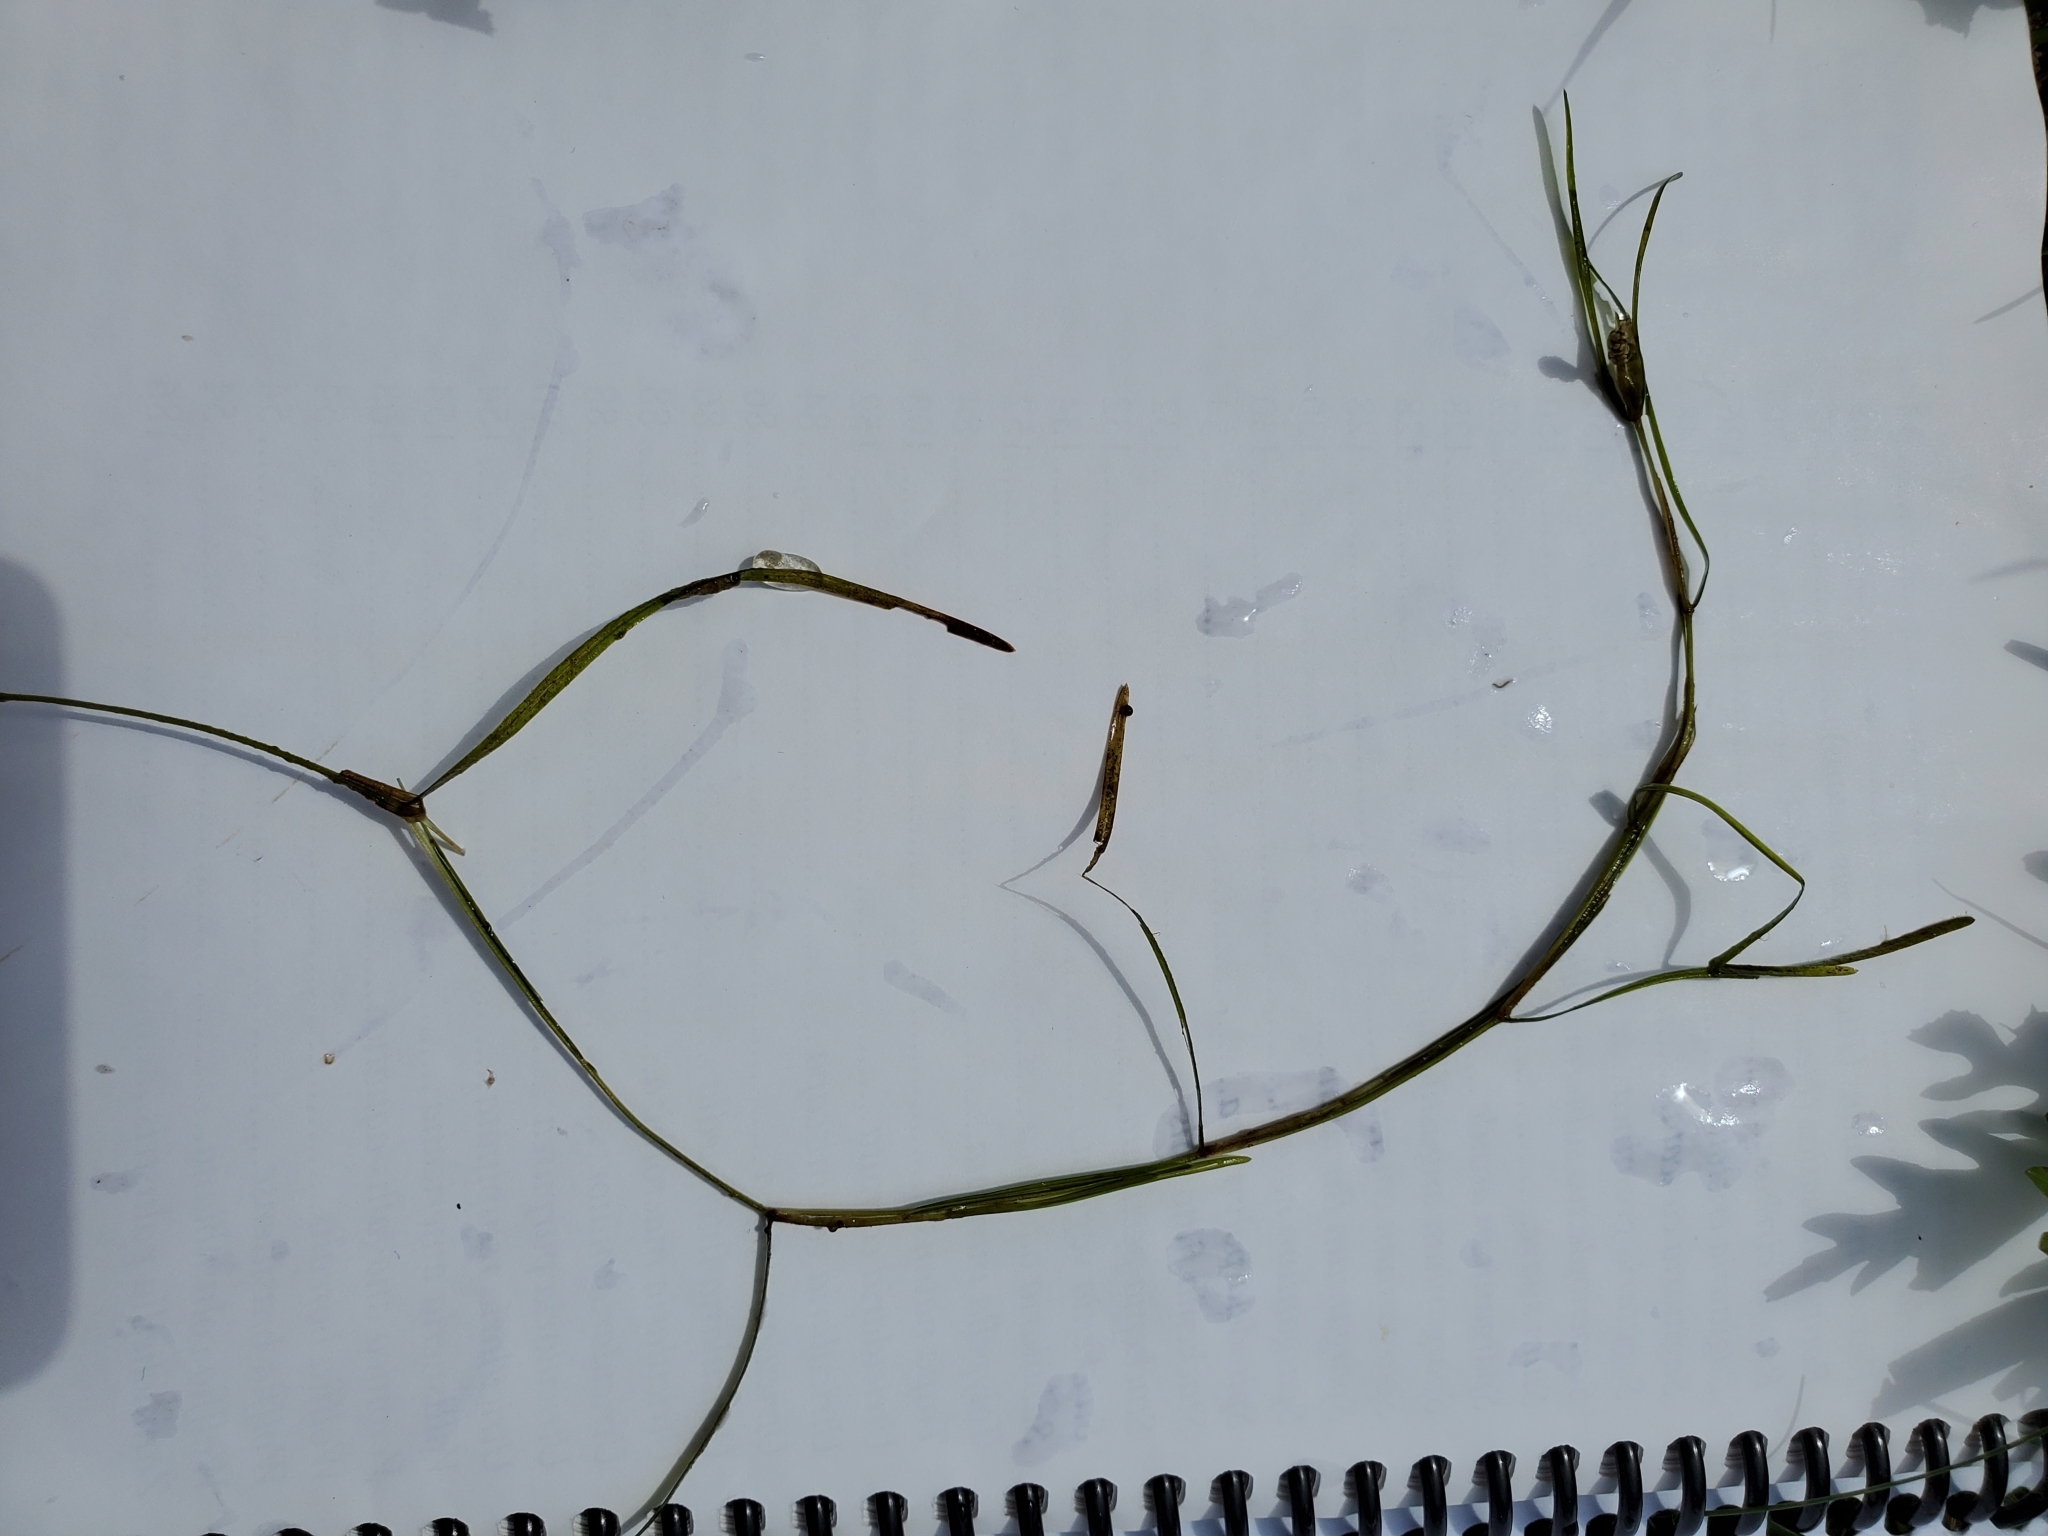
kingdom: Plantae
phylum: Tracheophyta
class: Liliopsida
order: Alismatales
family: Potamogetonaceae
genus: Potamogeton
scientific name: Potamogeton pusillus
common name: Lesser pondweed
